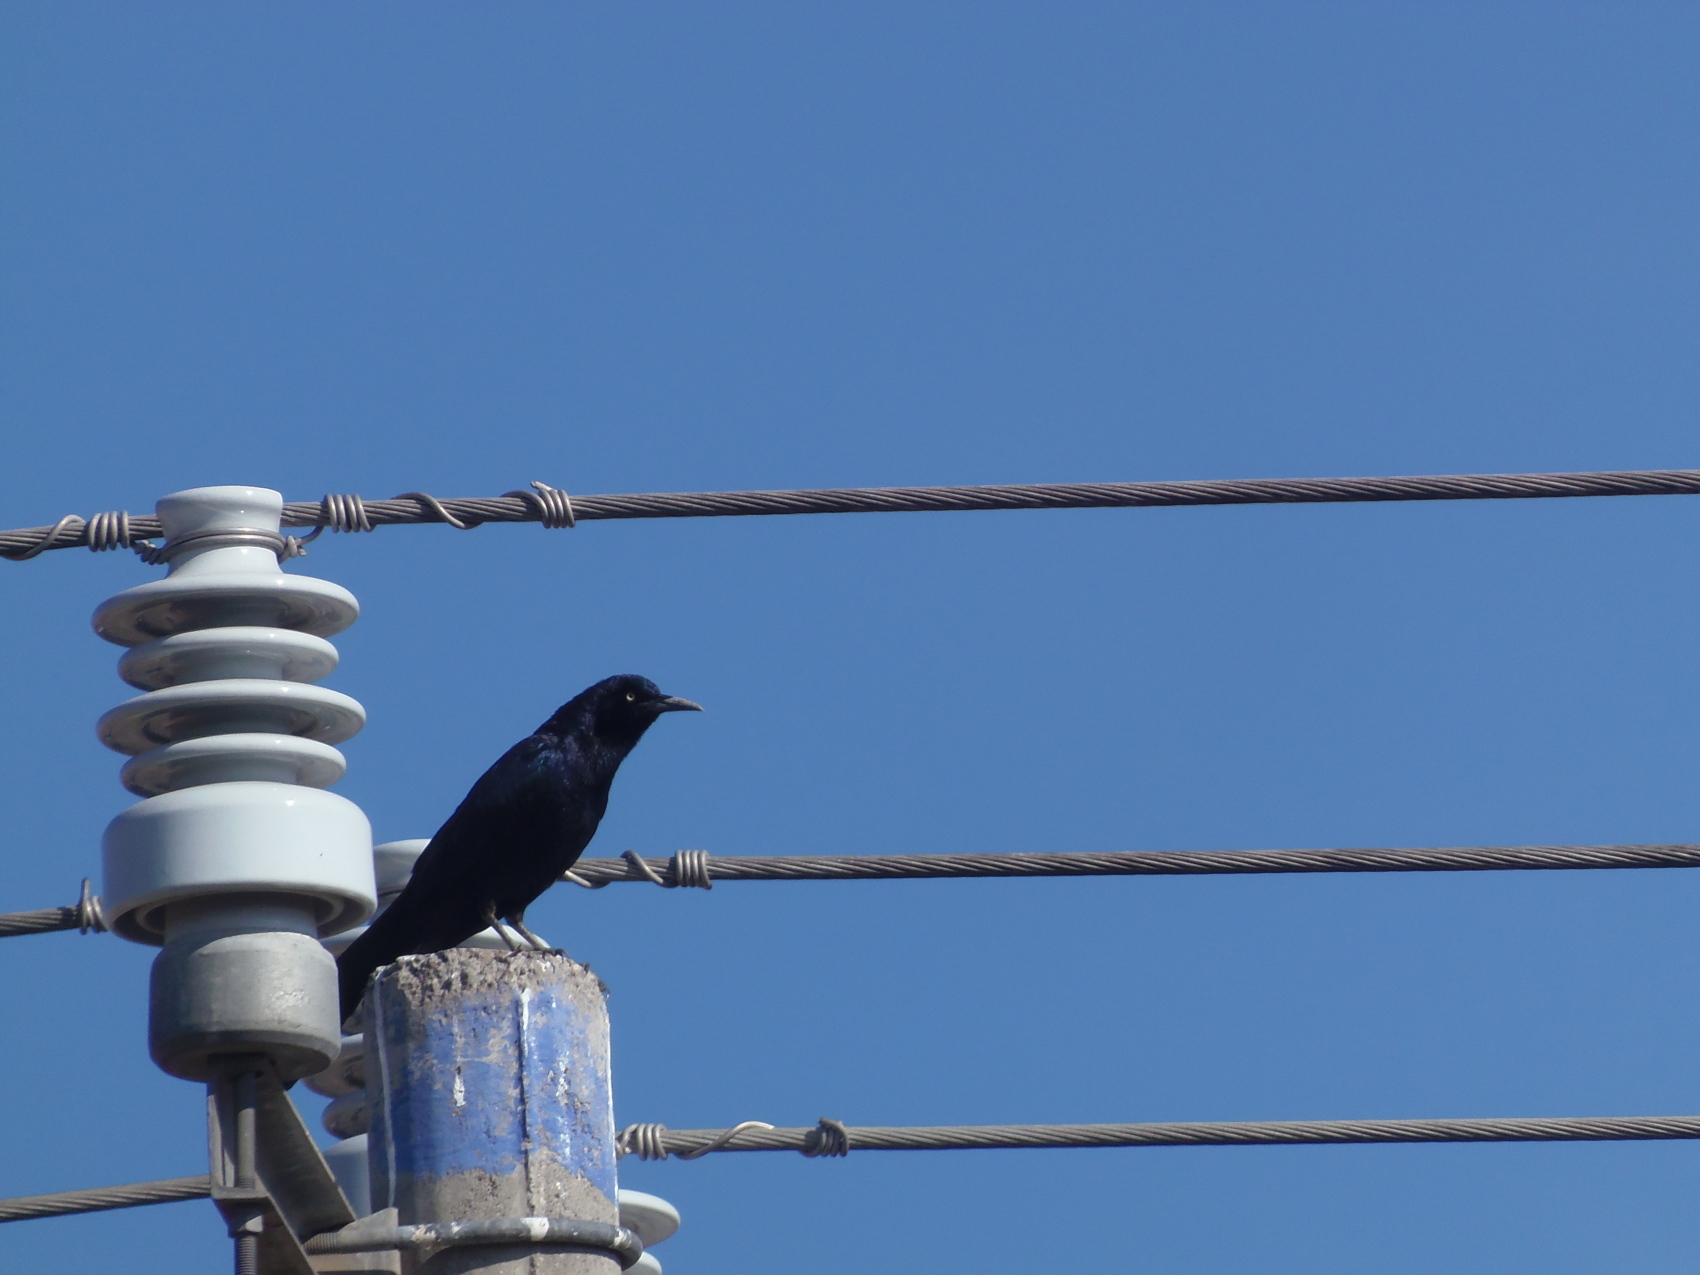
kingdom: Animalia
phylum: Chordata
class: Aves
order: Passeriformes
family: Icteridae
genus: Quiscalus
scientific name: Quiscalus mexicanus
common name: Great-tailed grackle
